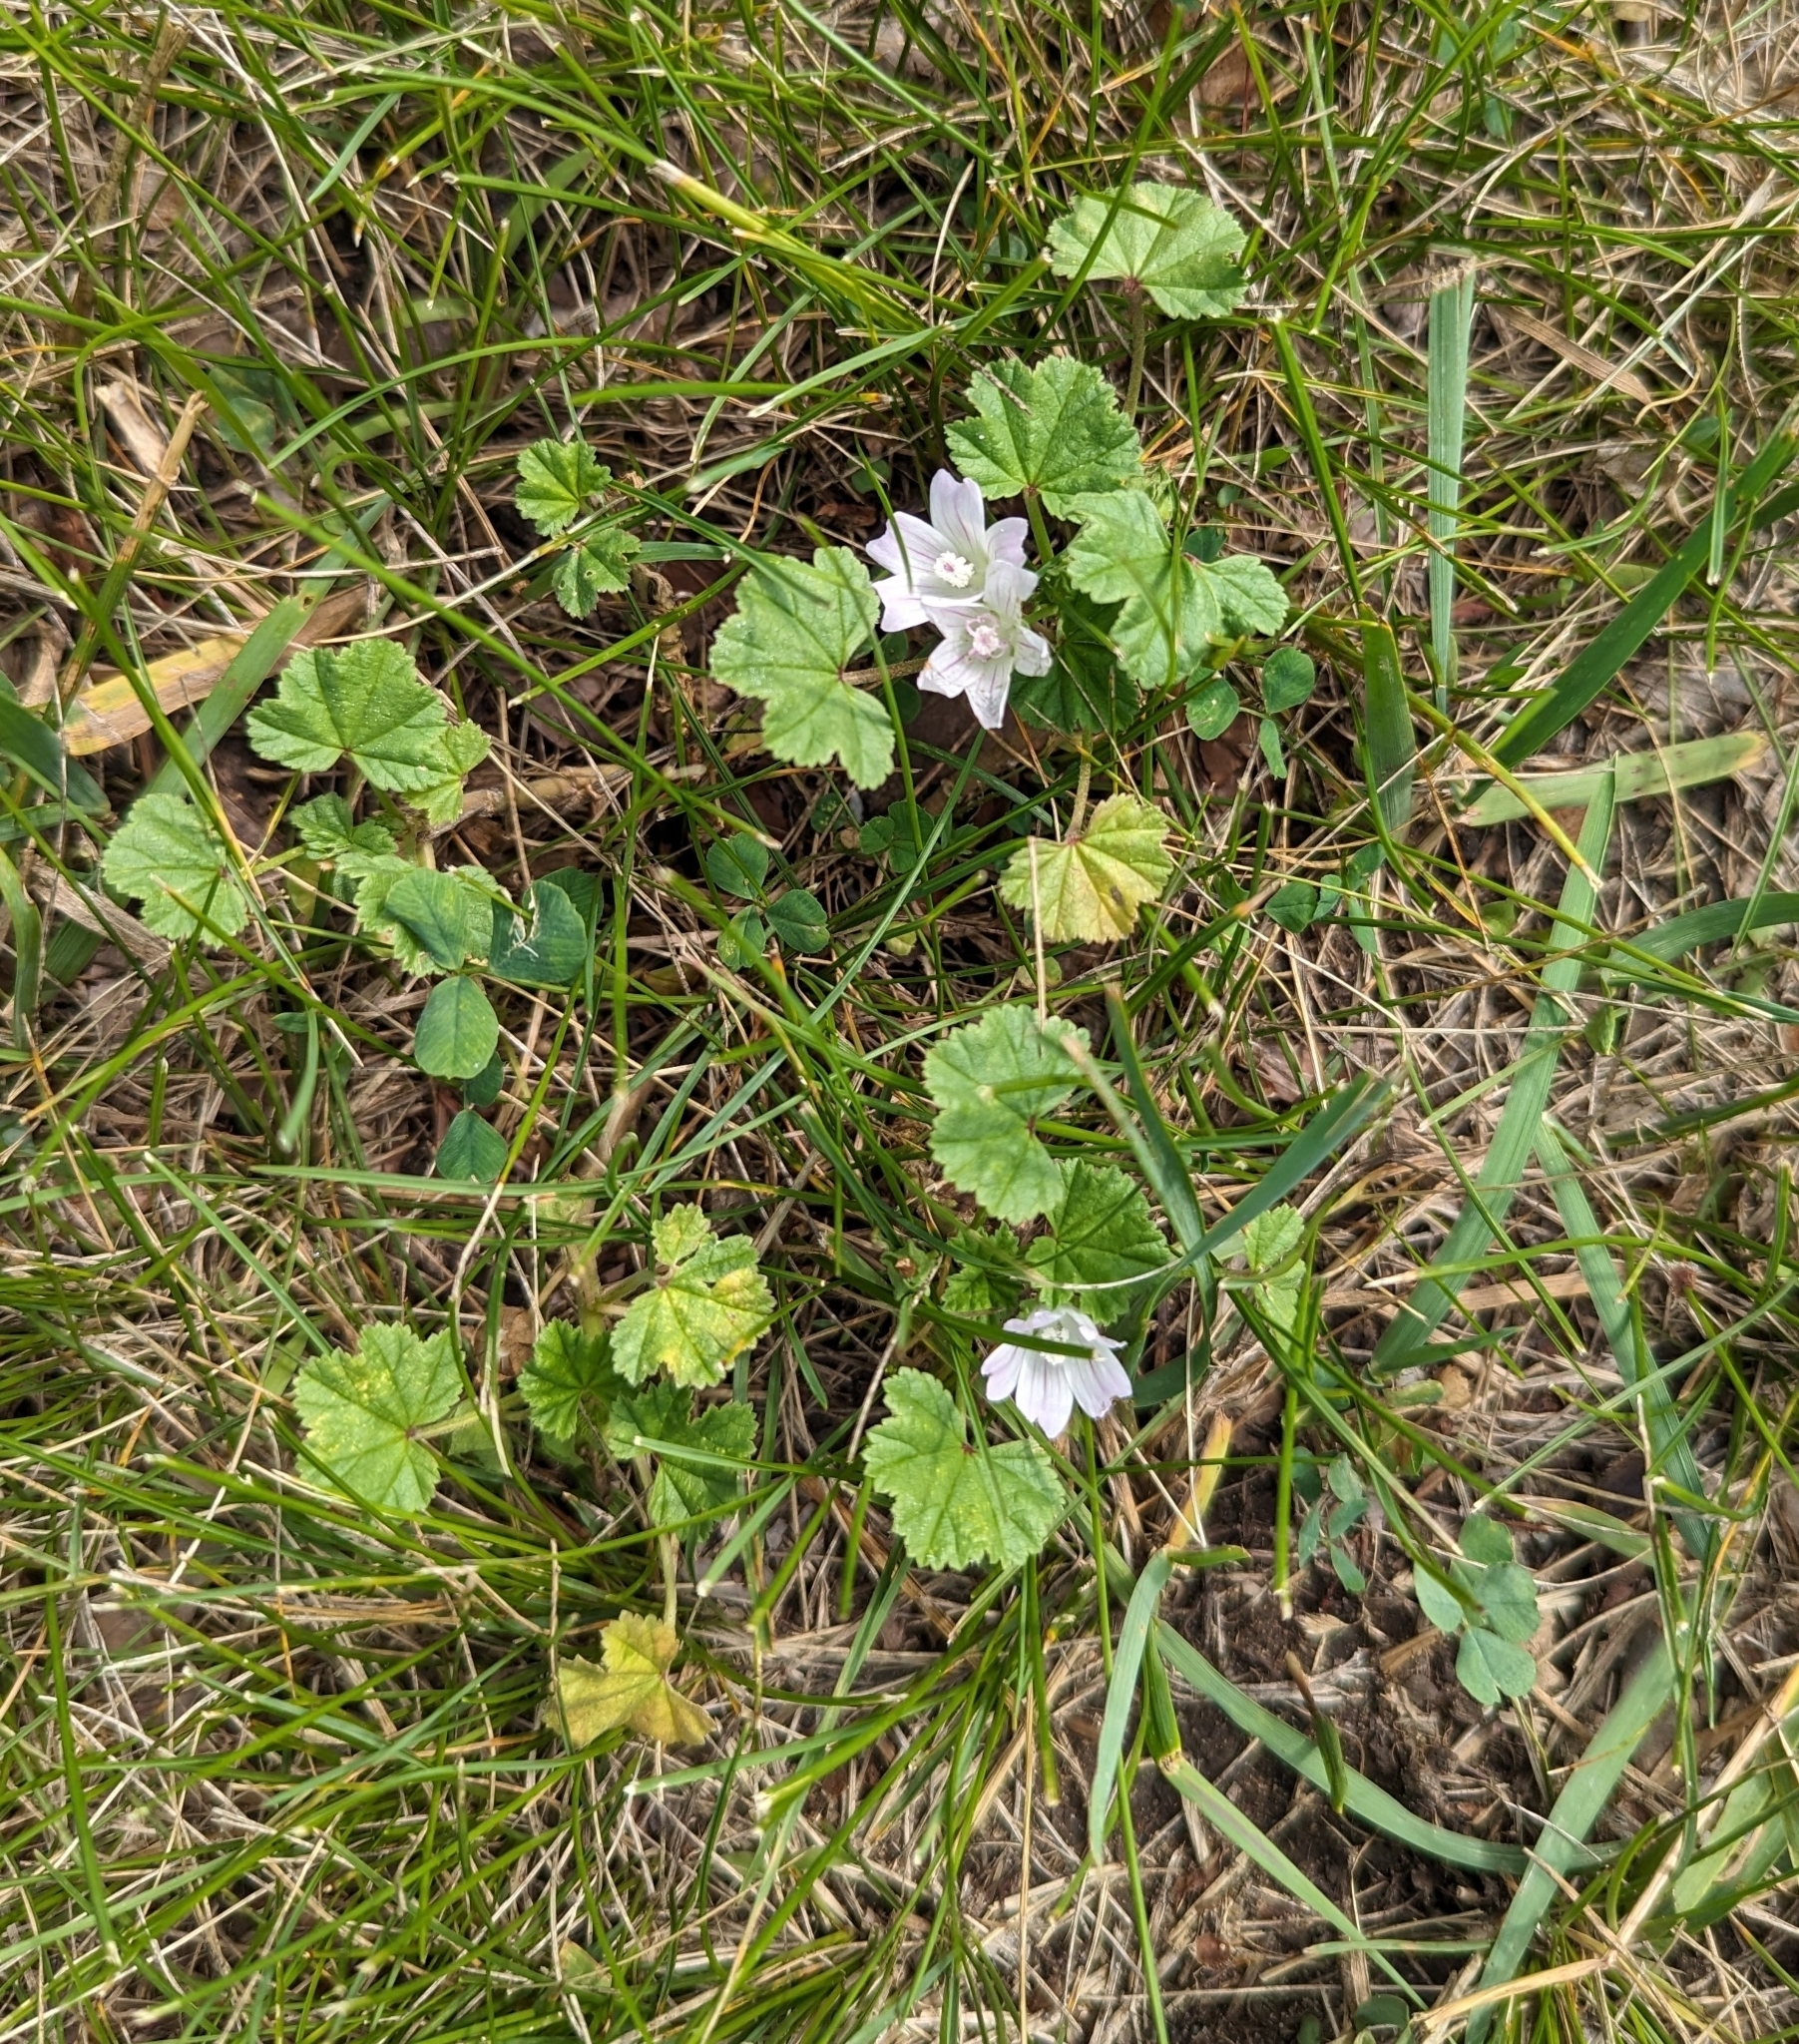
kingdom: Plantae
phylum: Tracheophyta
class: Magnoliopsida
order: Malvales
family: Malvaceae
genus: Malva
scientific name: Malva neglecta
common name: Common mallow
